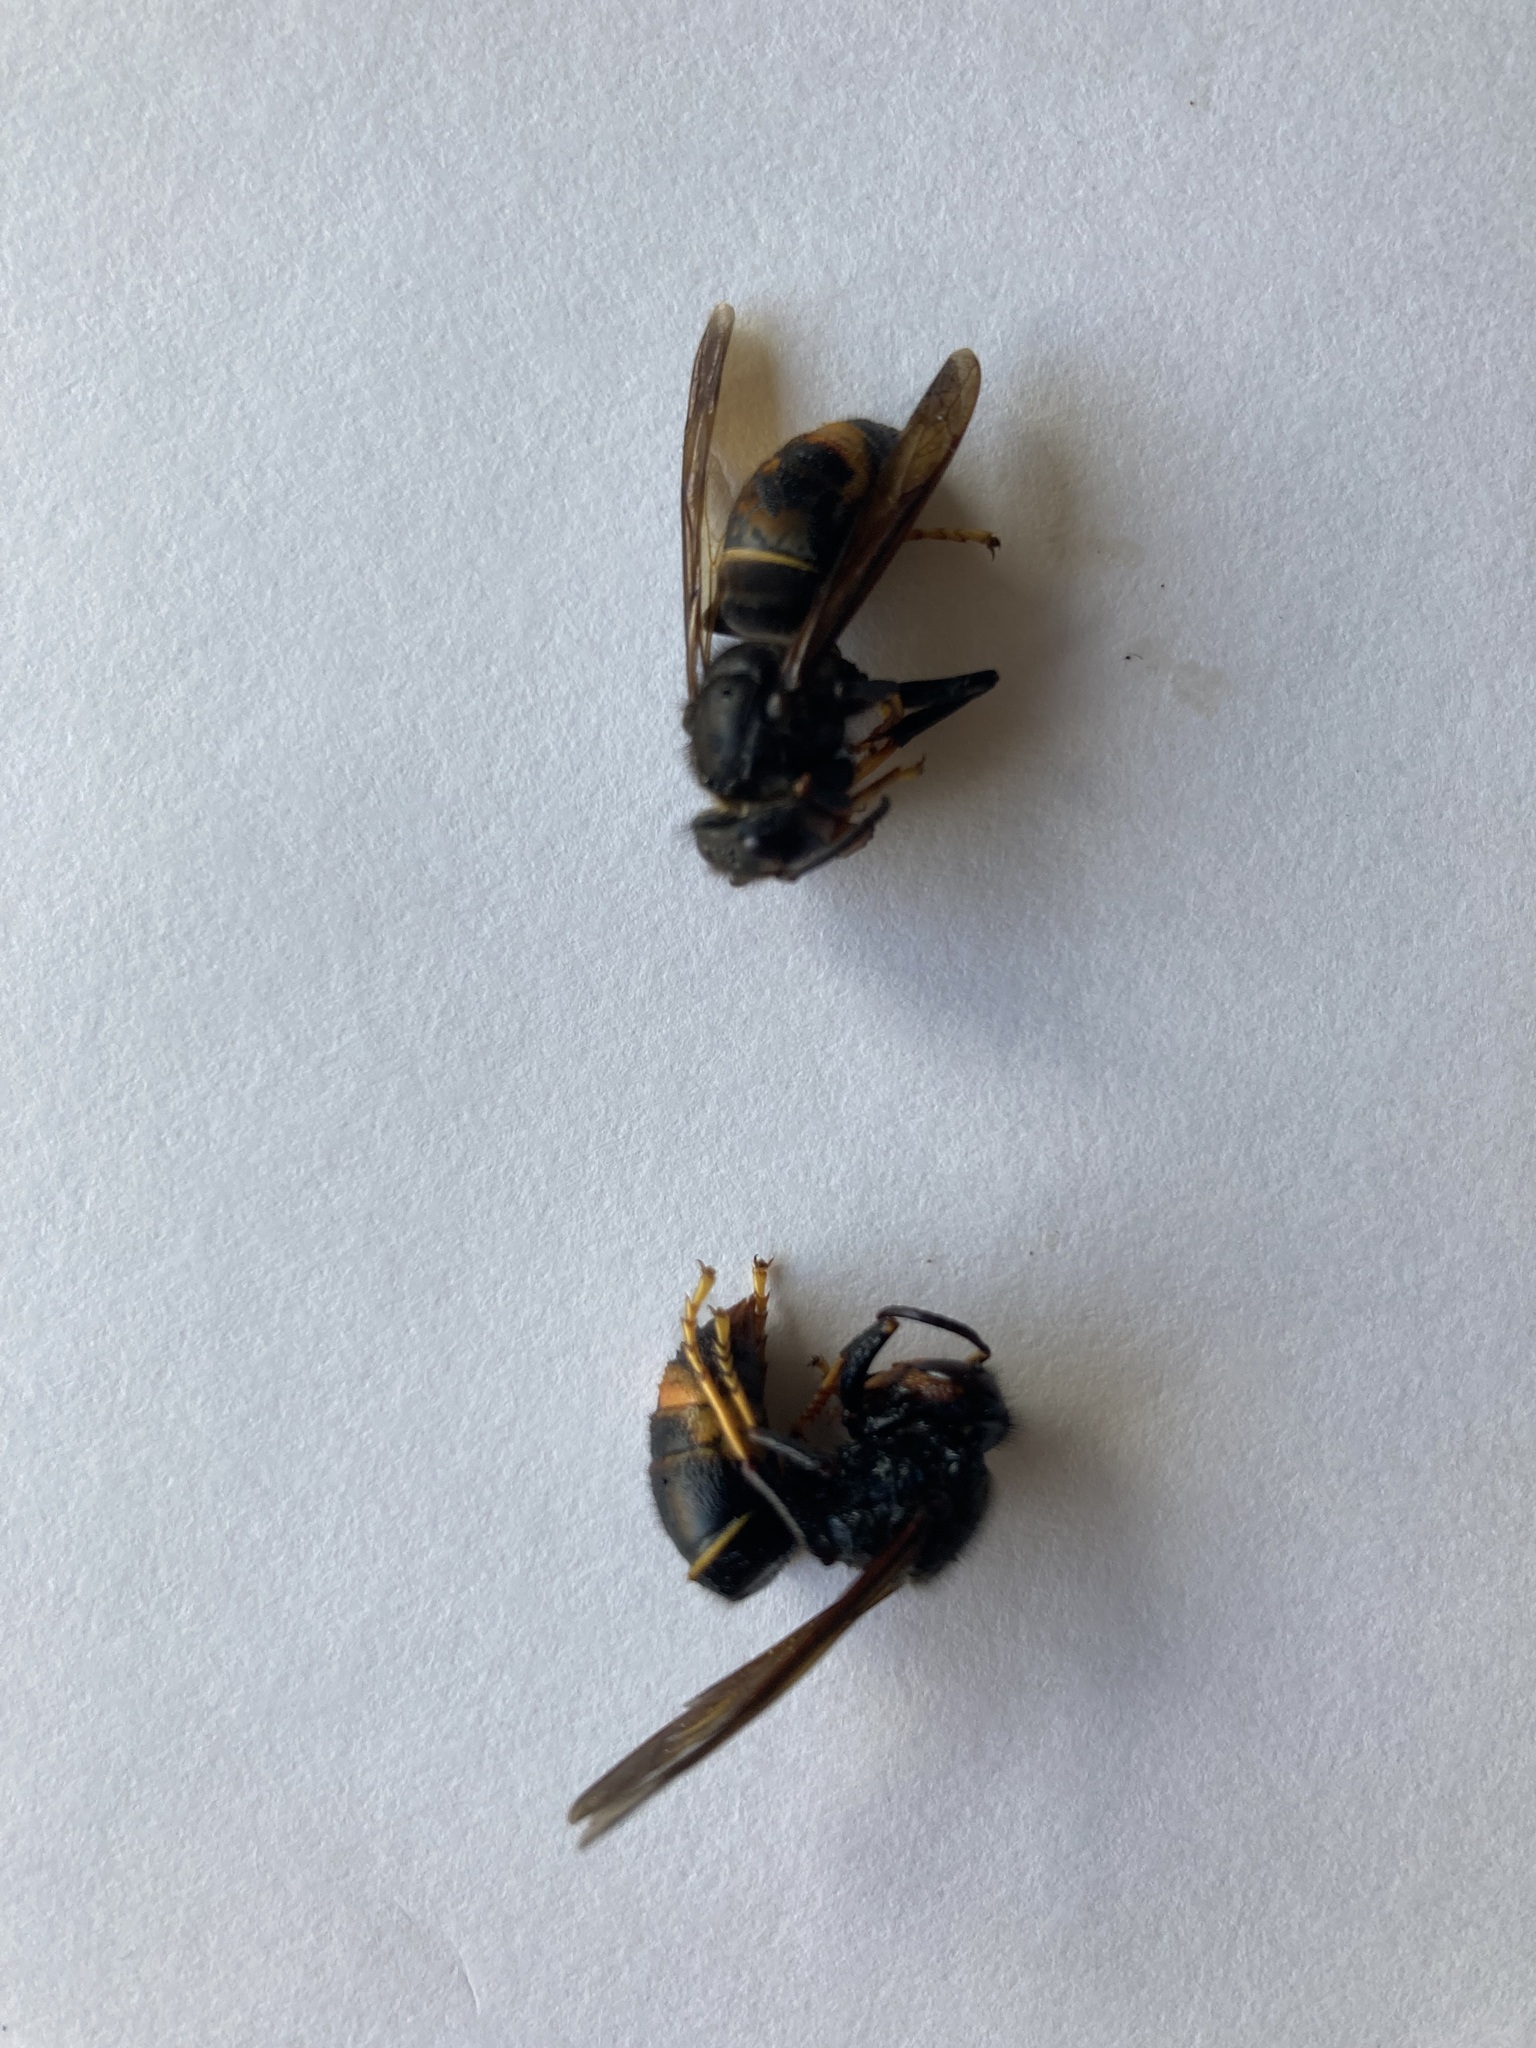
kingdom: Animalia
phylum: Arthropoda
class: Insecta
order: Hymenoptera
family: Vespidae
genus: Vespa
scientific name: Vespa velutina
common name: Asian hornet
